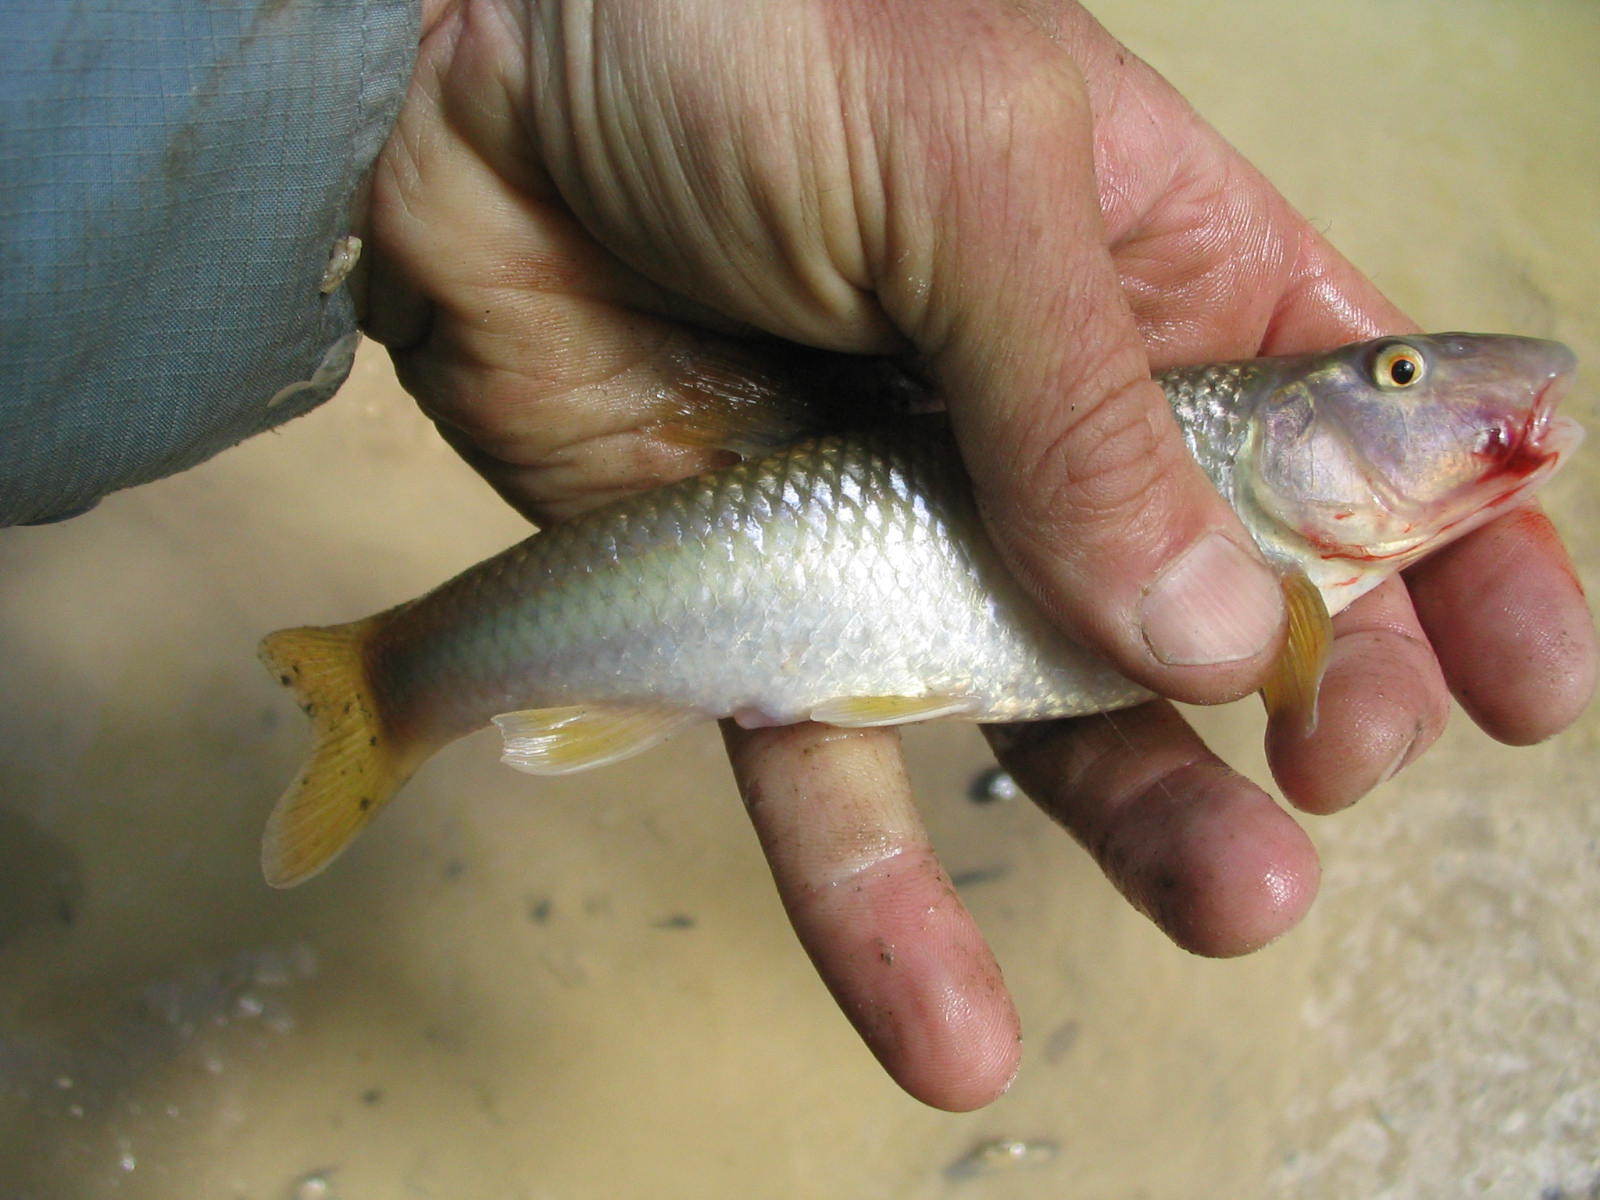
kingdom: Animalia
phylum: Chordata
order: Cypriniformes
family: Cyprinidae
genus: Nocomis
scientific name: Nocomis micropogon
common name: River chub
